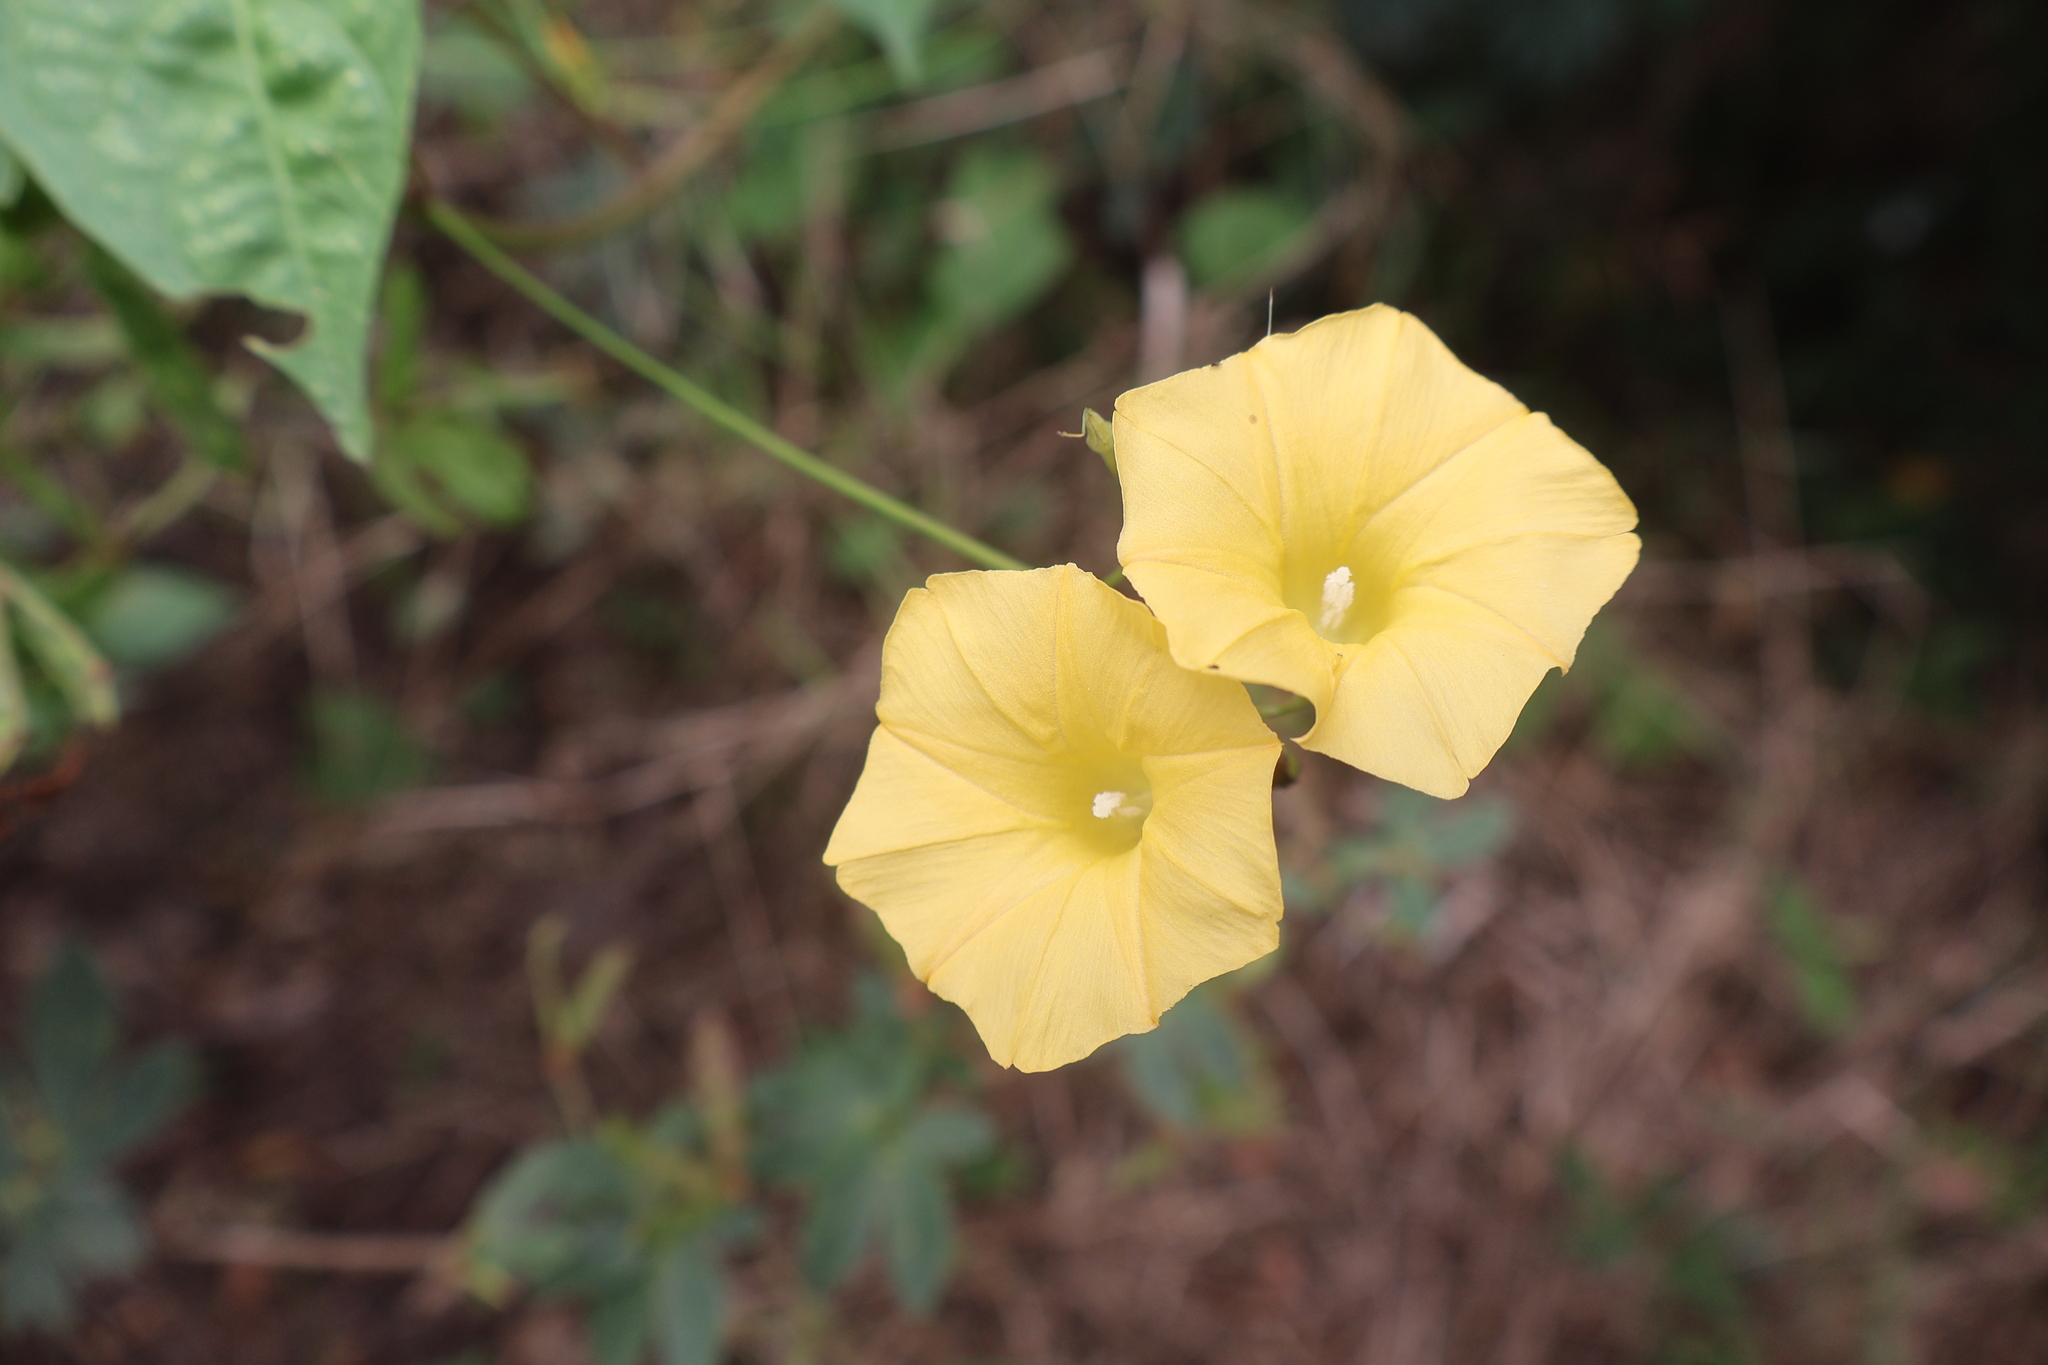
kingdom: Plantae
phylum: Tracheophyta
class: Magnoliopsida
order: Solanales
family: Convolvulaceae
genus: Ipomoea
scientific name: Ipomoea microsepala
